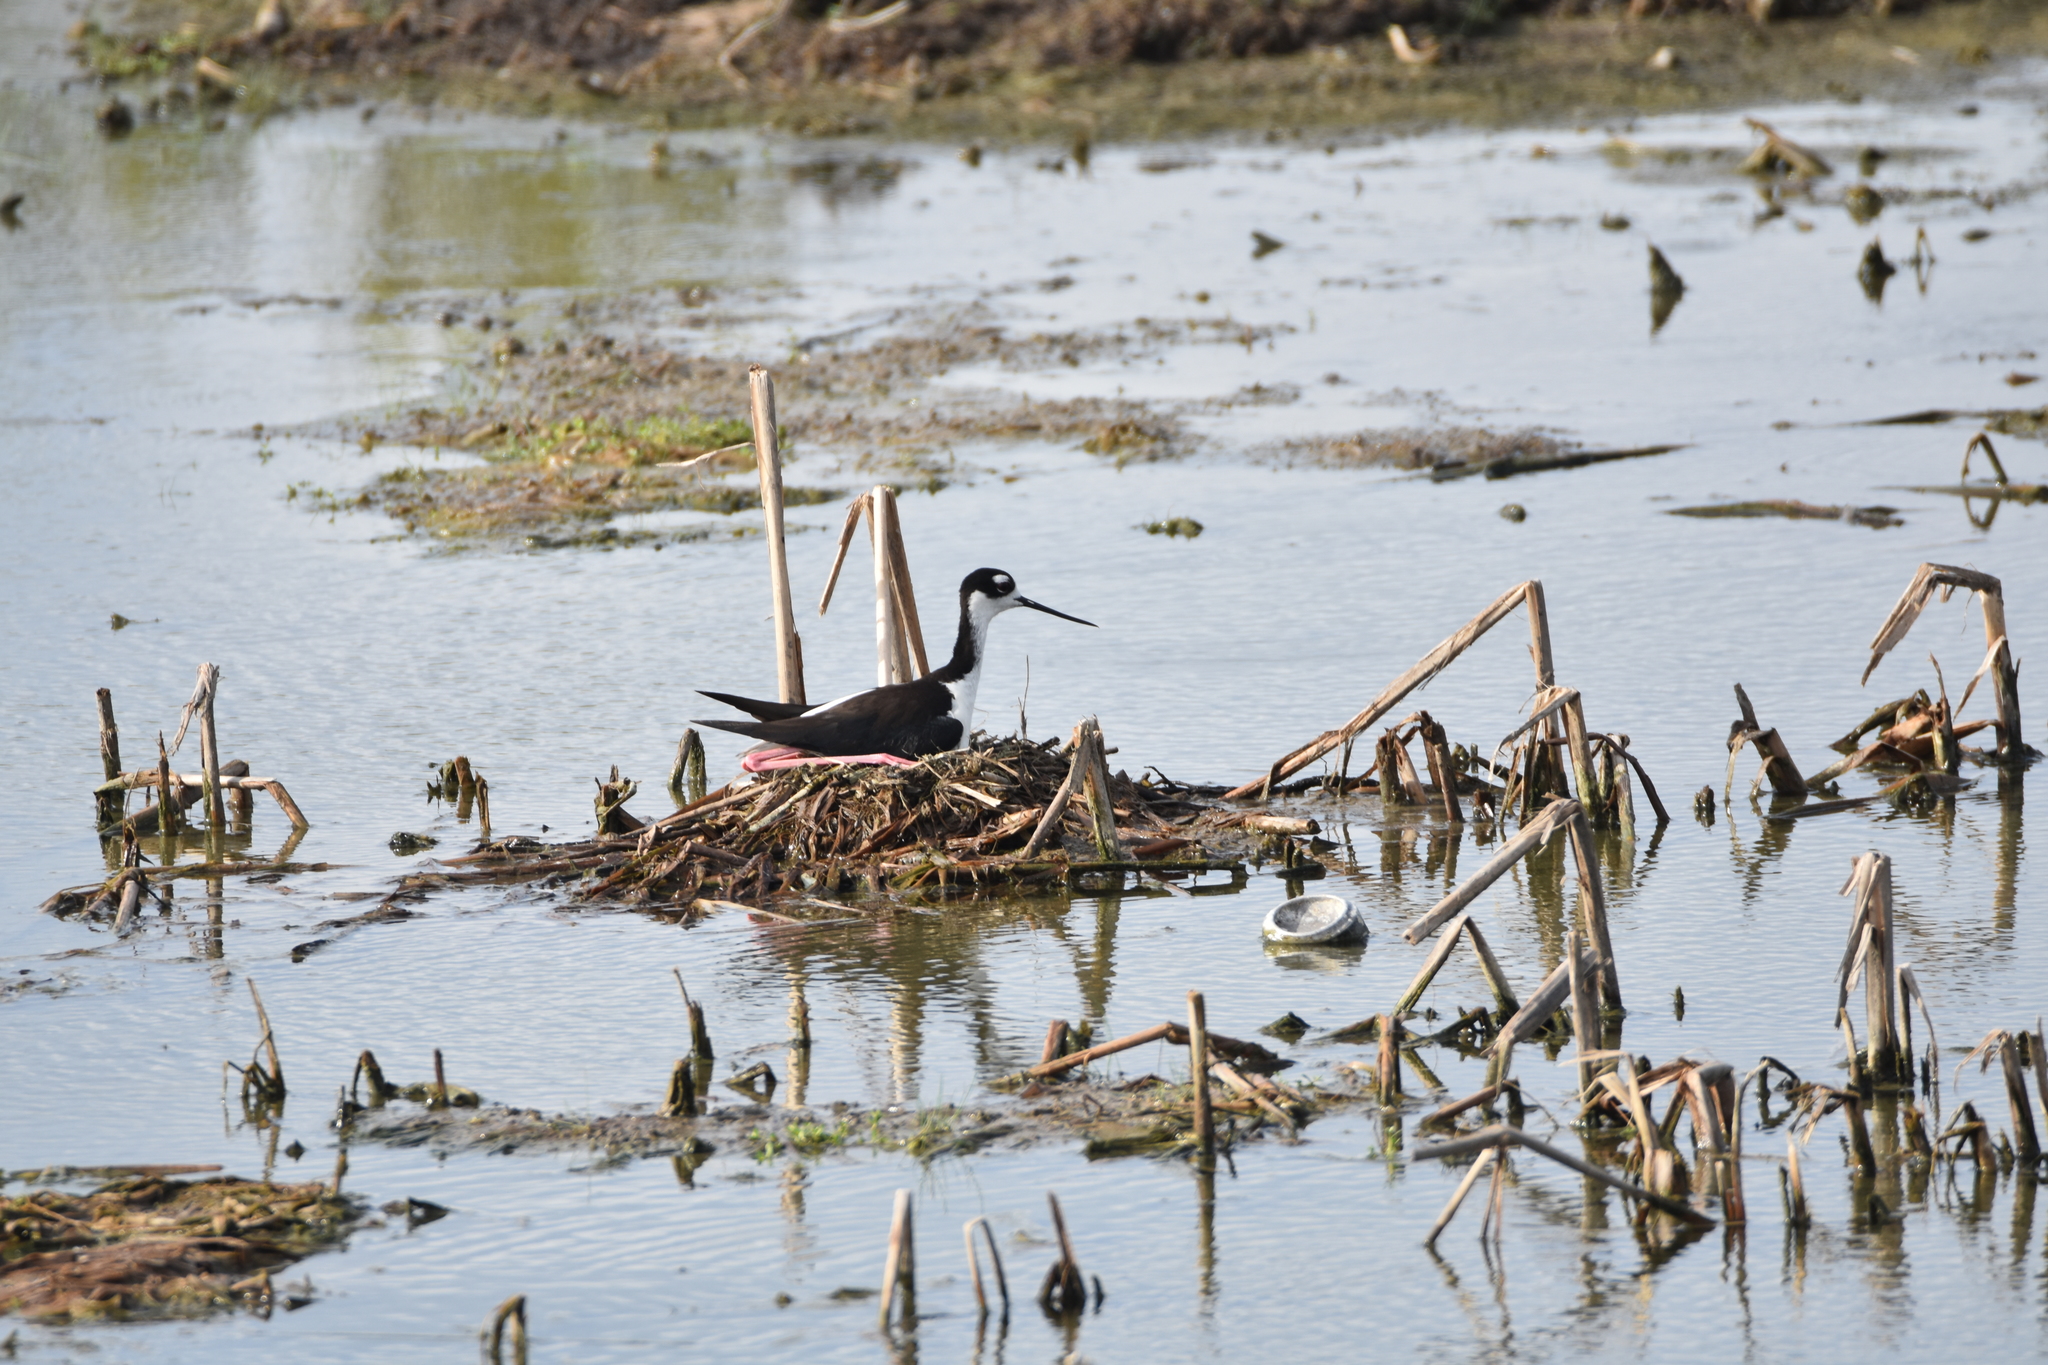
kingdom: Animalia
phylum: Chordata
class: Aves
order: Charadriiformes
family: Recurvirostridae
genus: Himantopus
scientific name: Himantopus mexicanus
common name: Black-necked stilt
